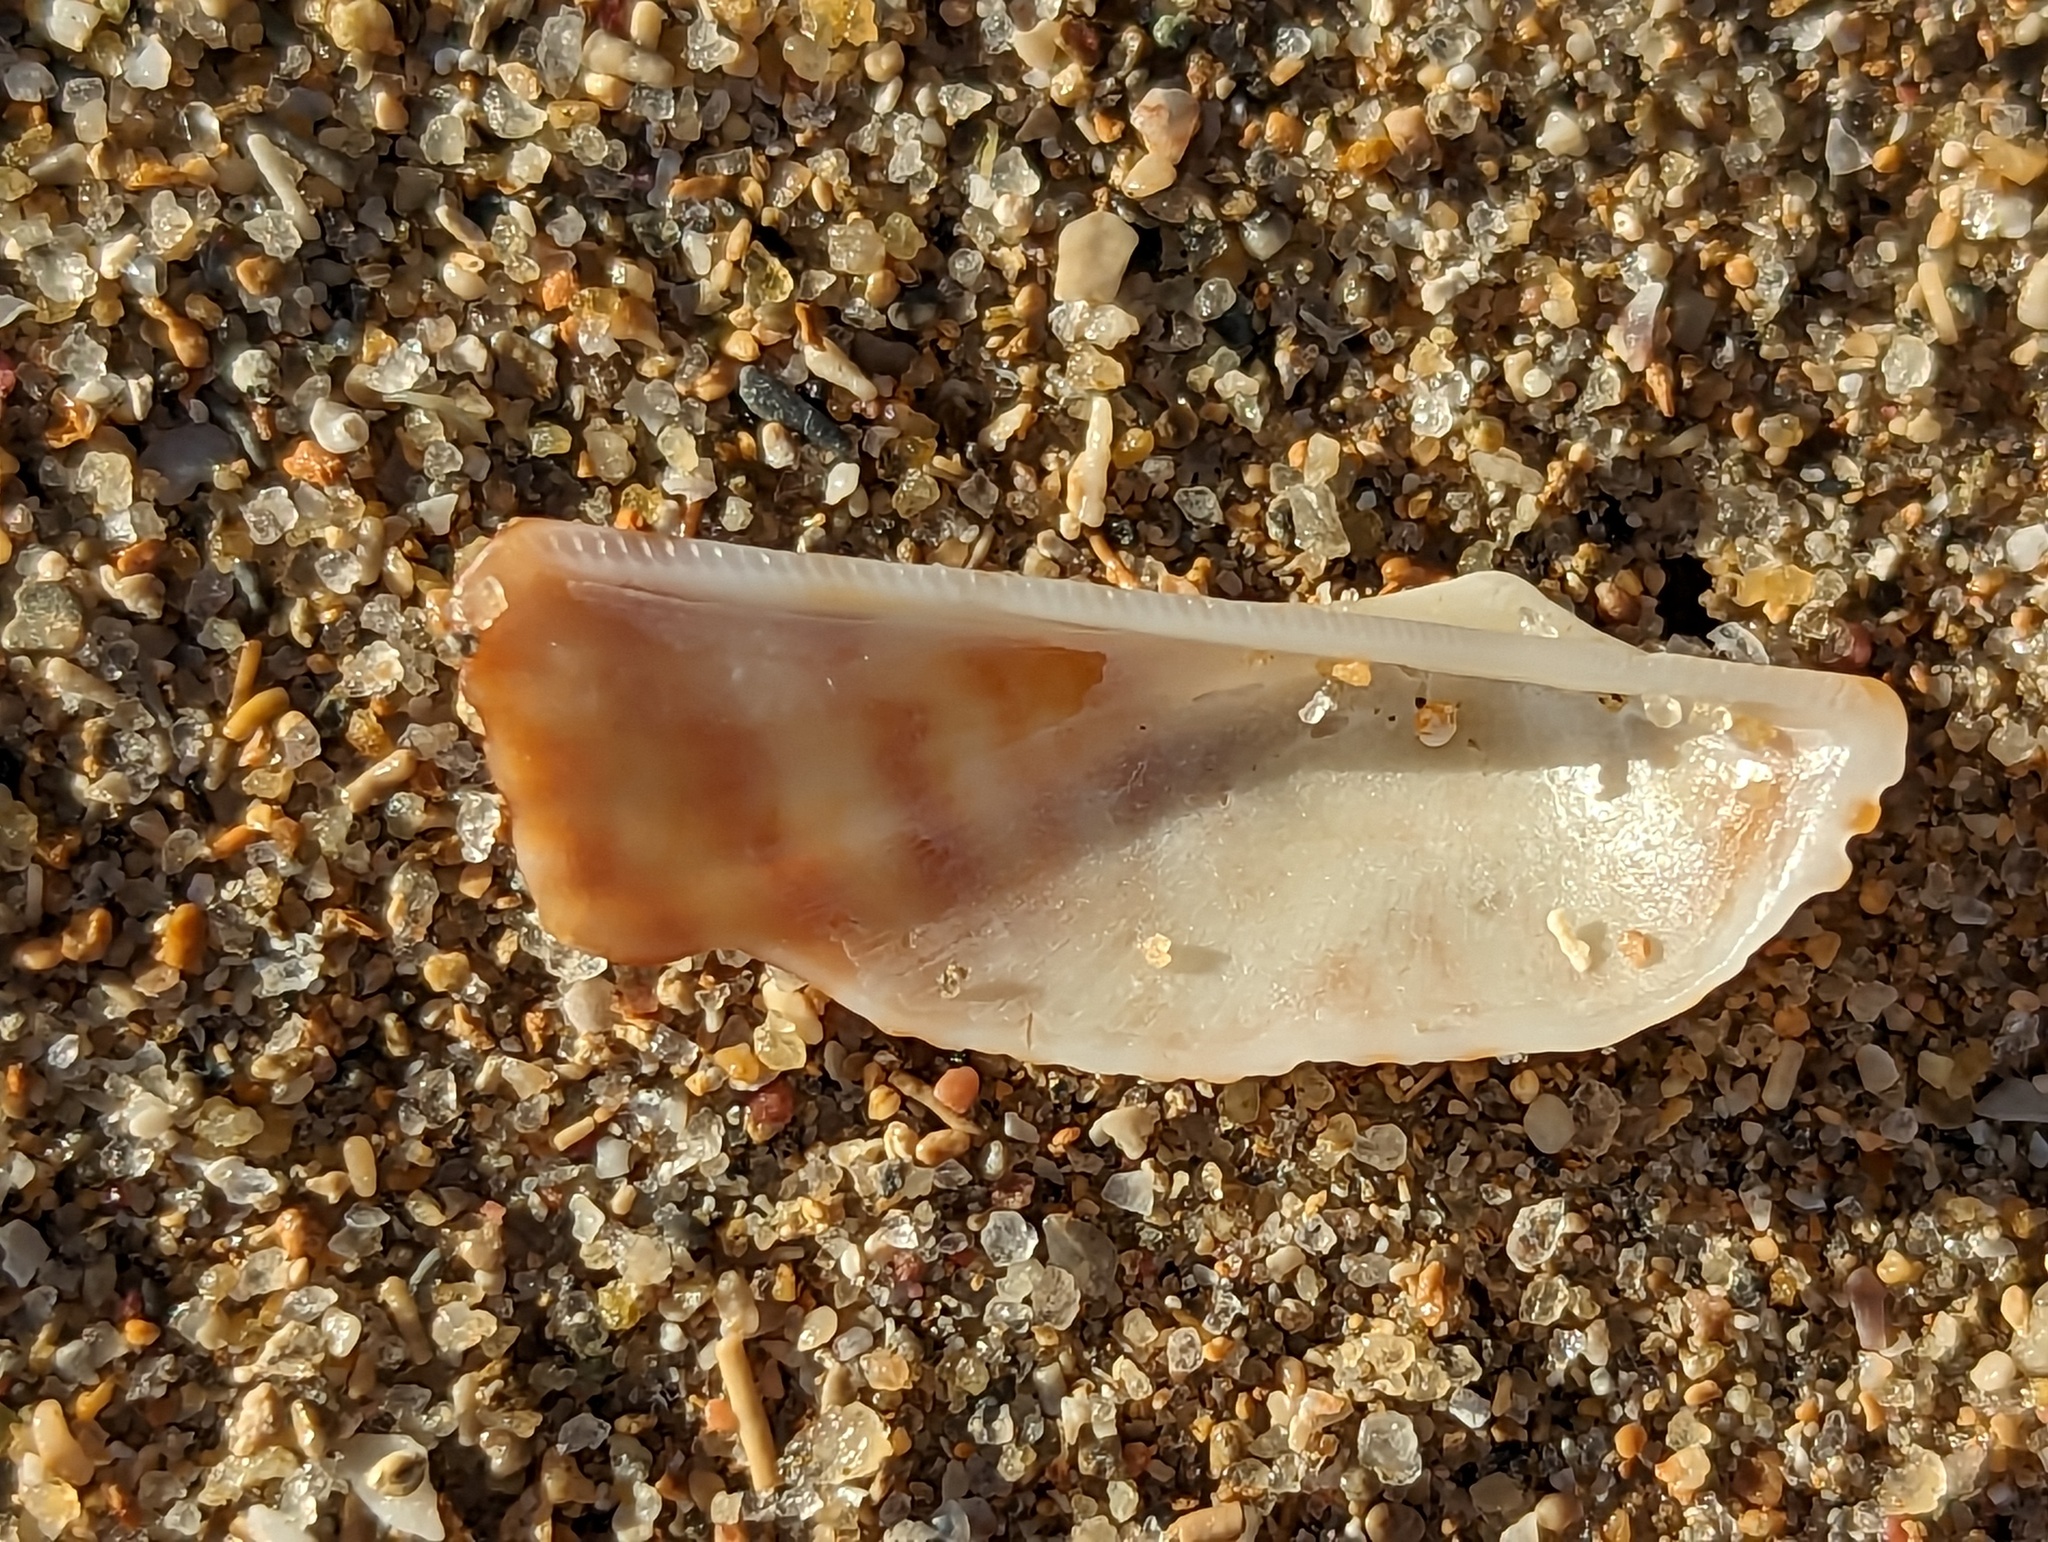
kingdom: Animalia
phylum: Mollusca
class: Bivalvia
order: Arcida
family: Arcidae
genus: Arca
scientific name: Arca zebra
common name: Atlantic turkey wing
